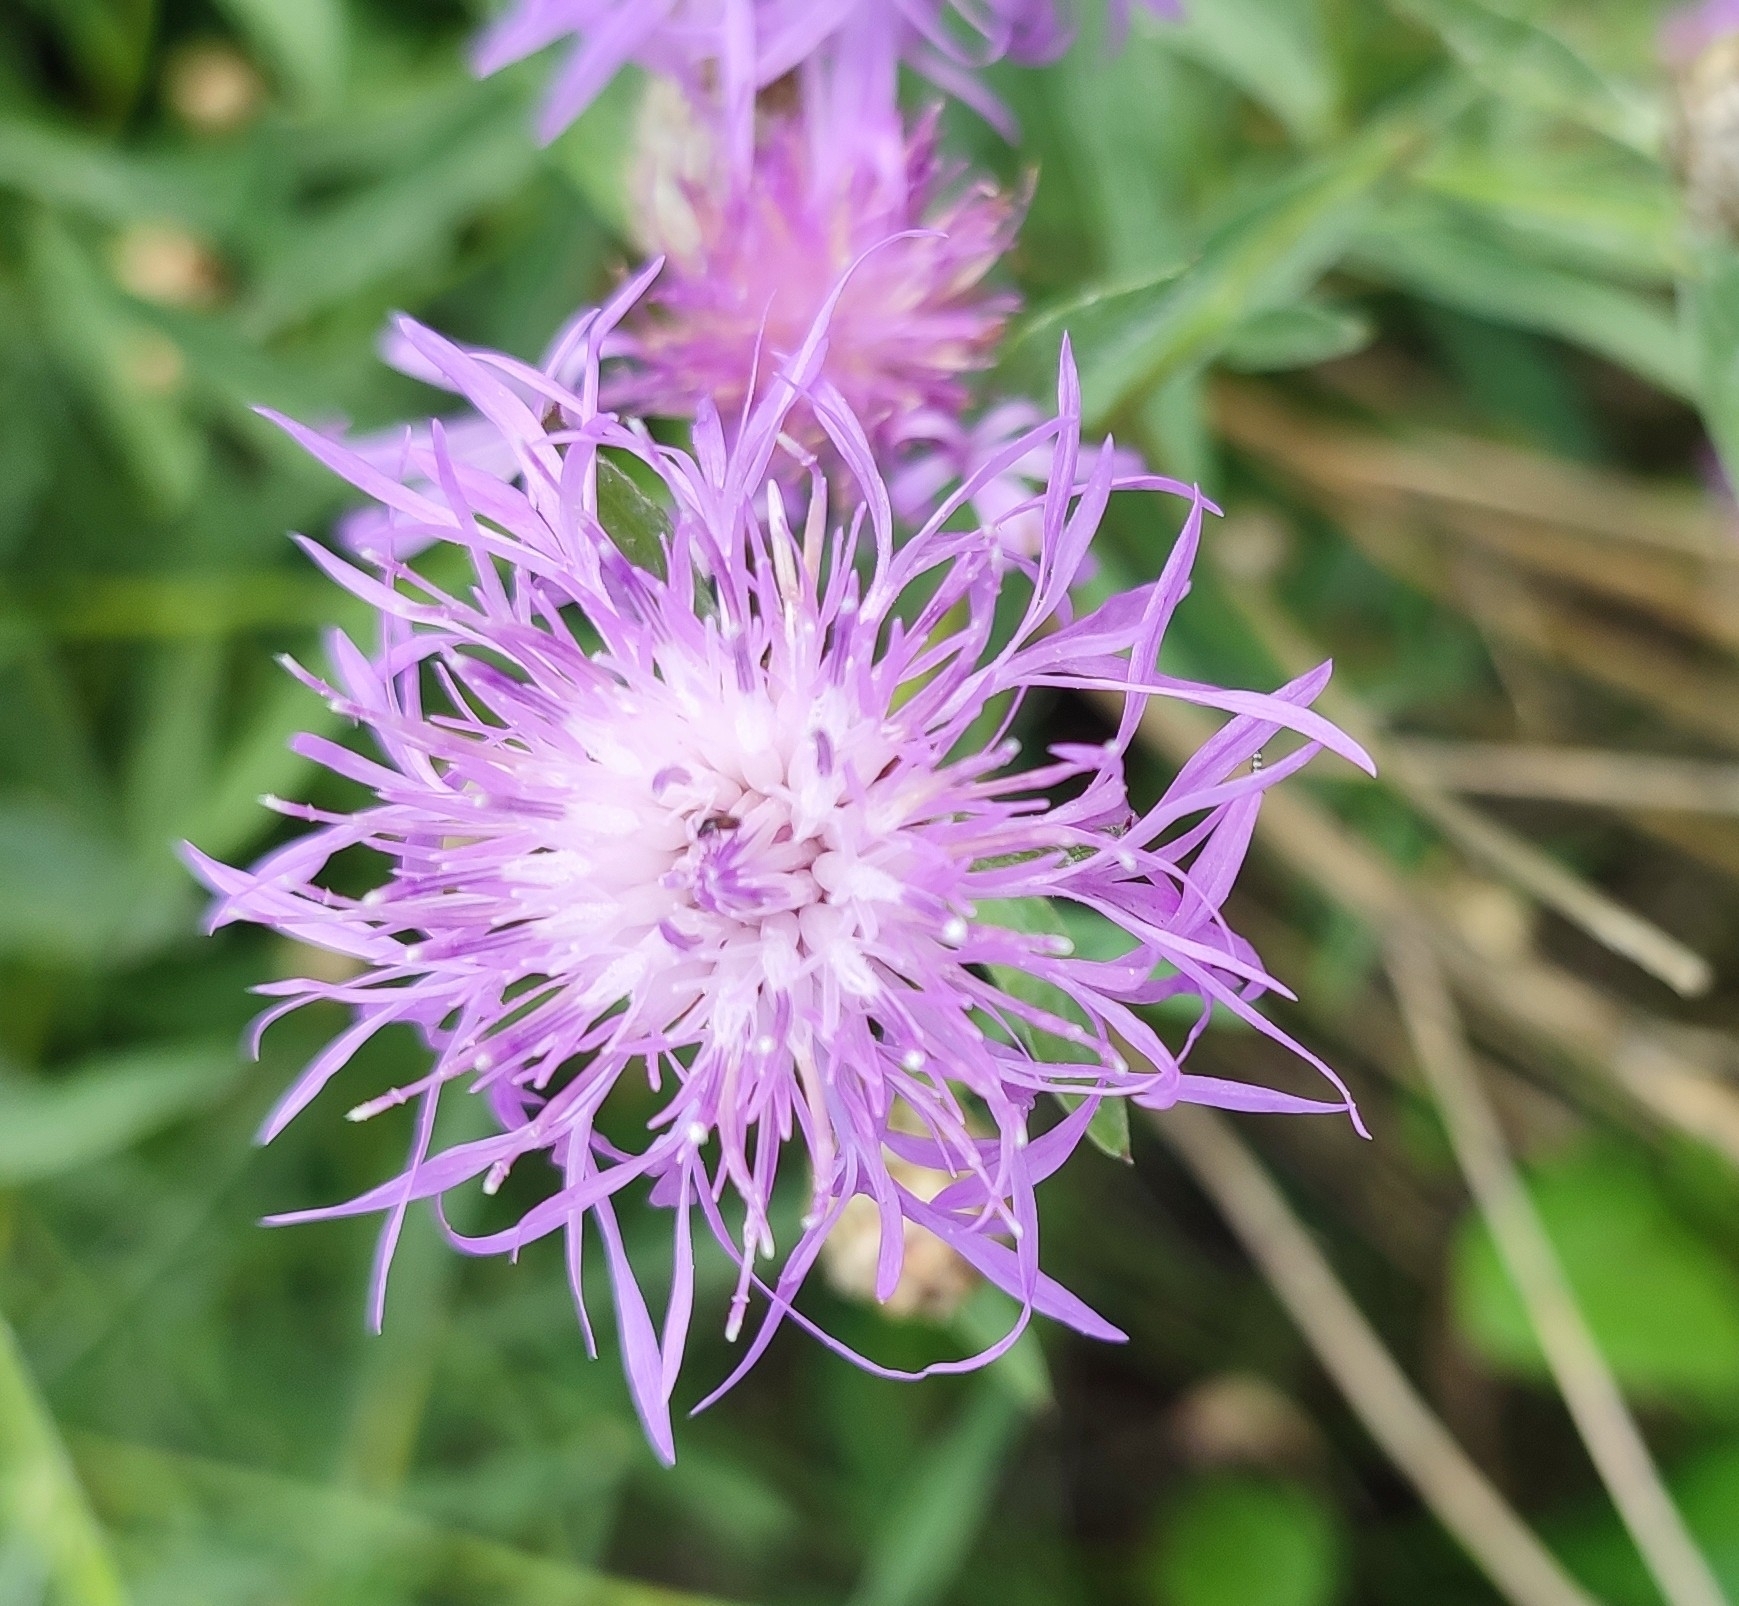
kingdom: Plantae
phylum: Tracheophyta
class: Magnoliopsida
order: Asterales
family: Asteraceae
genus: Centaurea
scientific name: Centaurea jacea
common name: Brown knapweed
